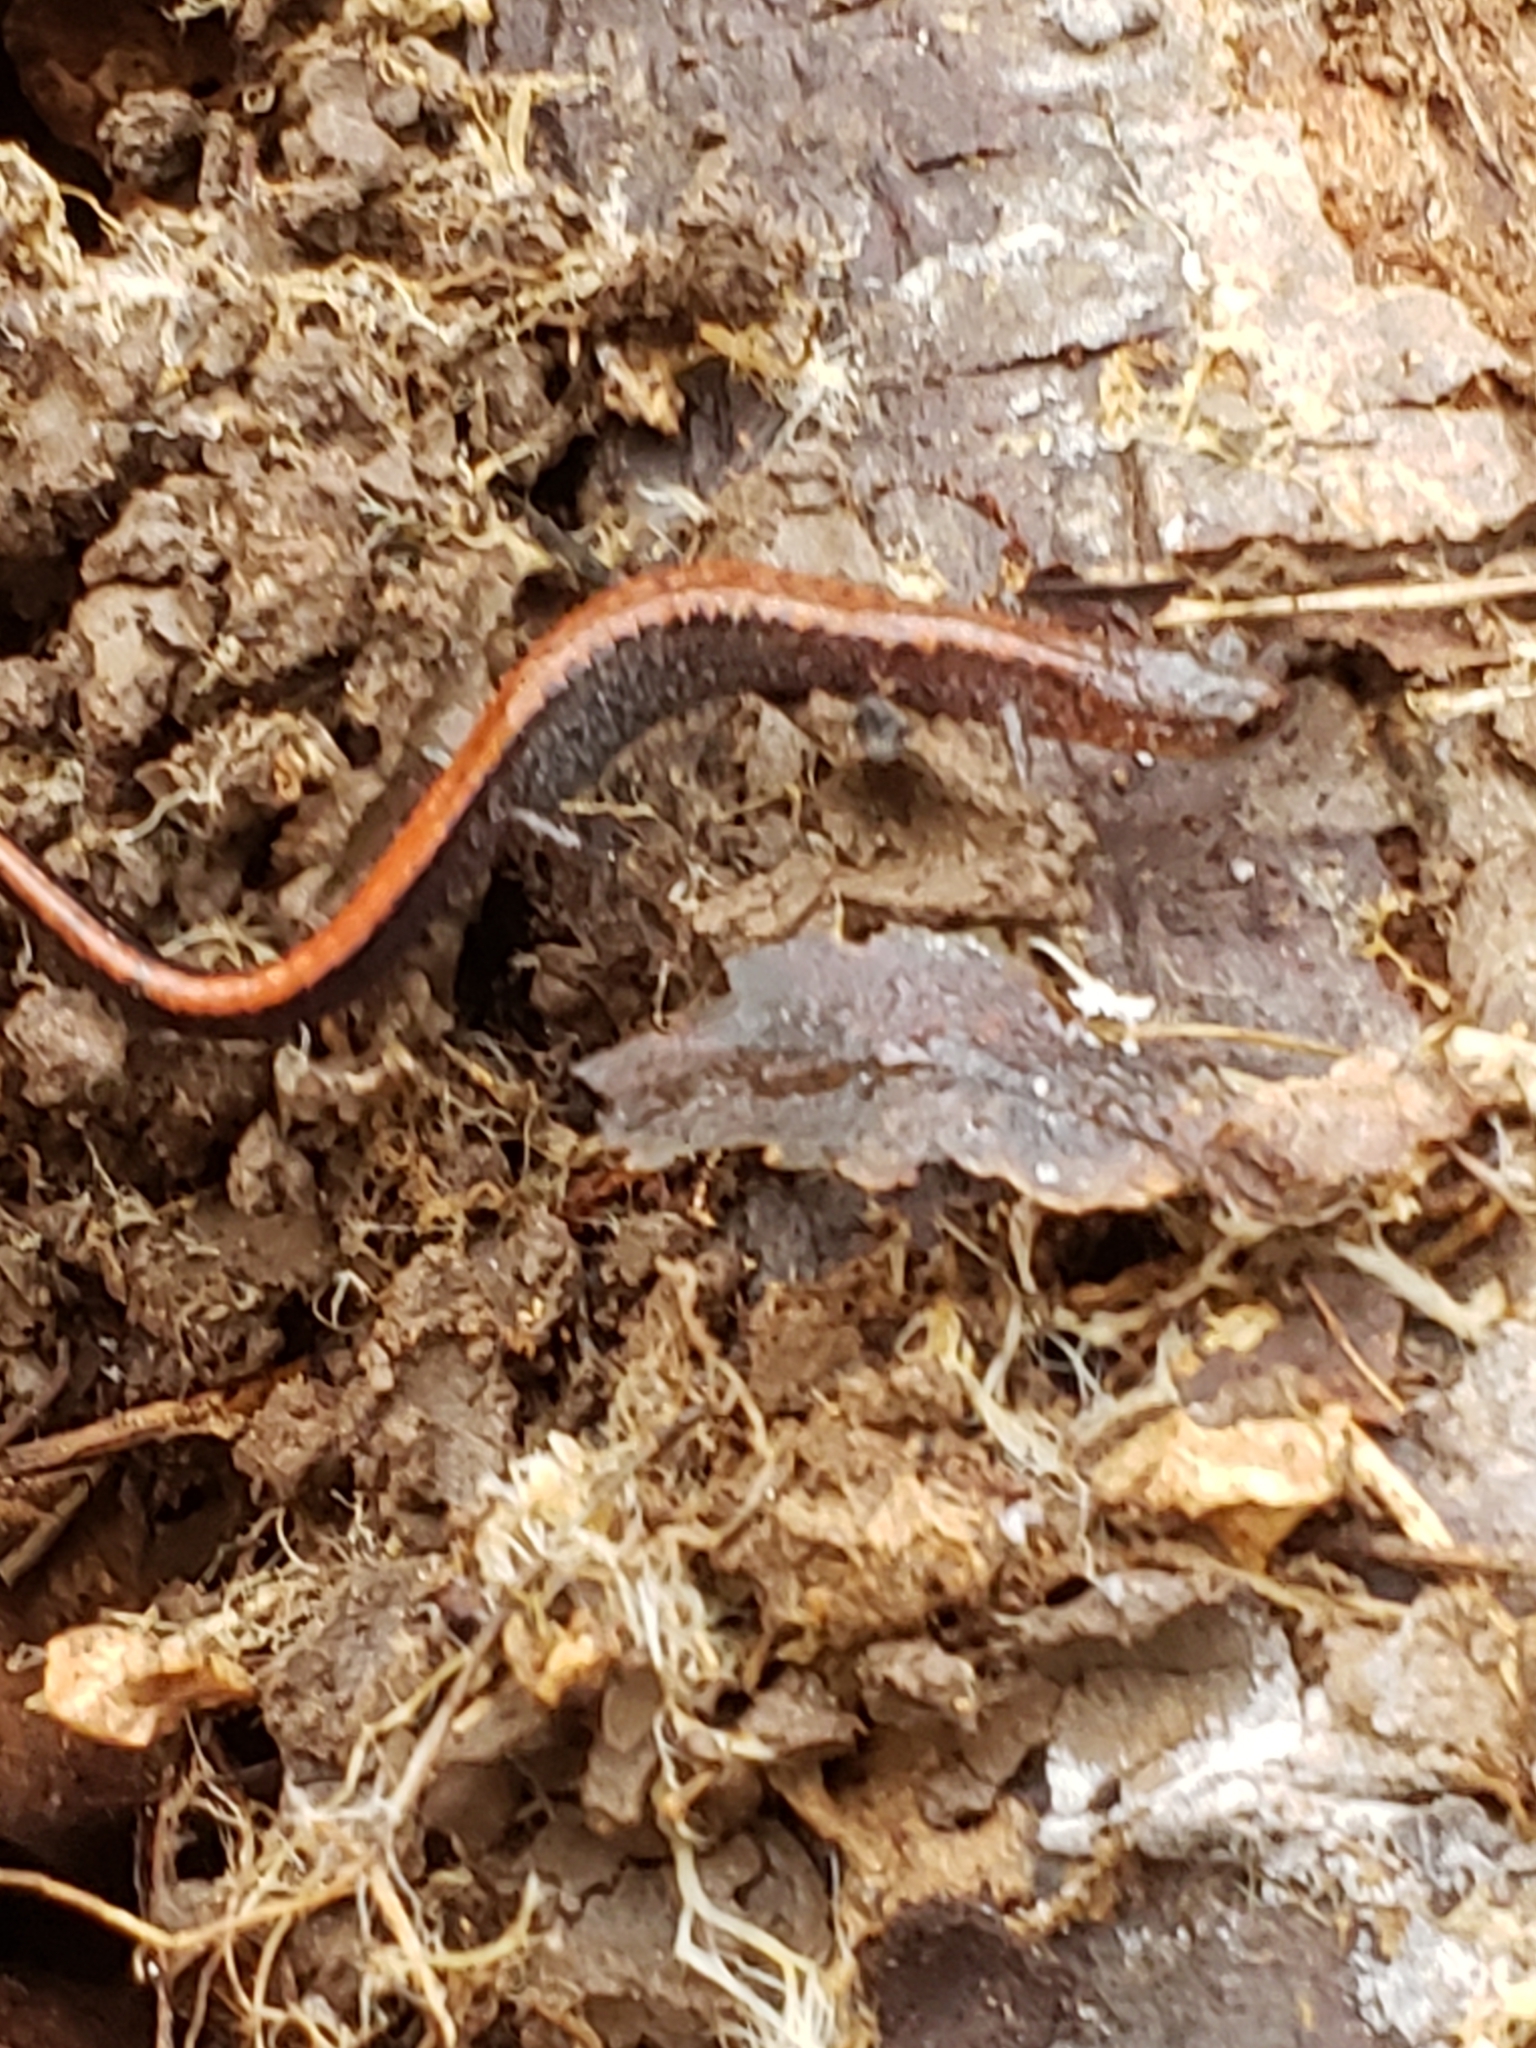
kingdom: Animalia
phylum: Chordata
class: Amphibia
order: Caudata
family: Plethodontidae
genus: Plethodon
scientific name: Plethodon cinereus
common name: Redback salamander
